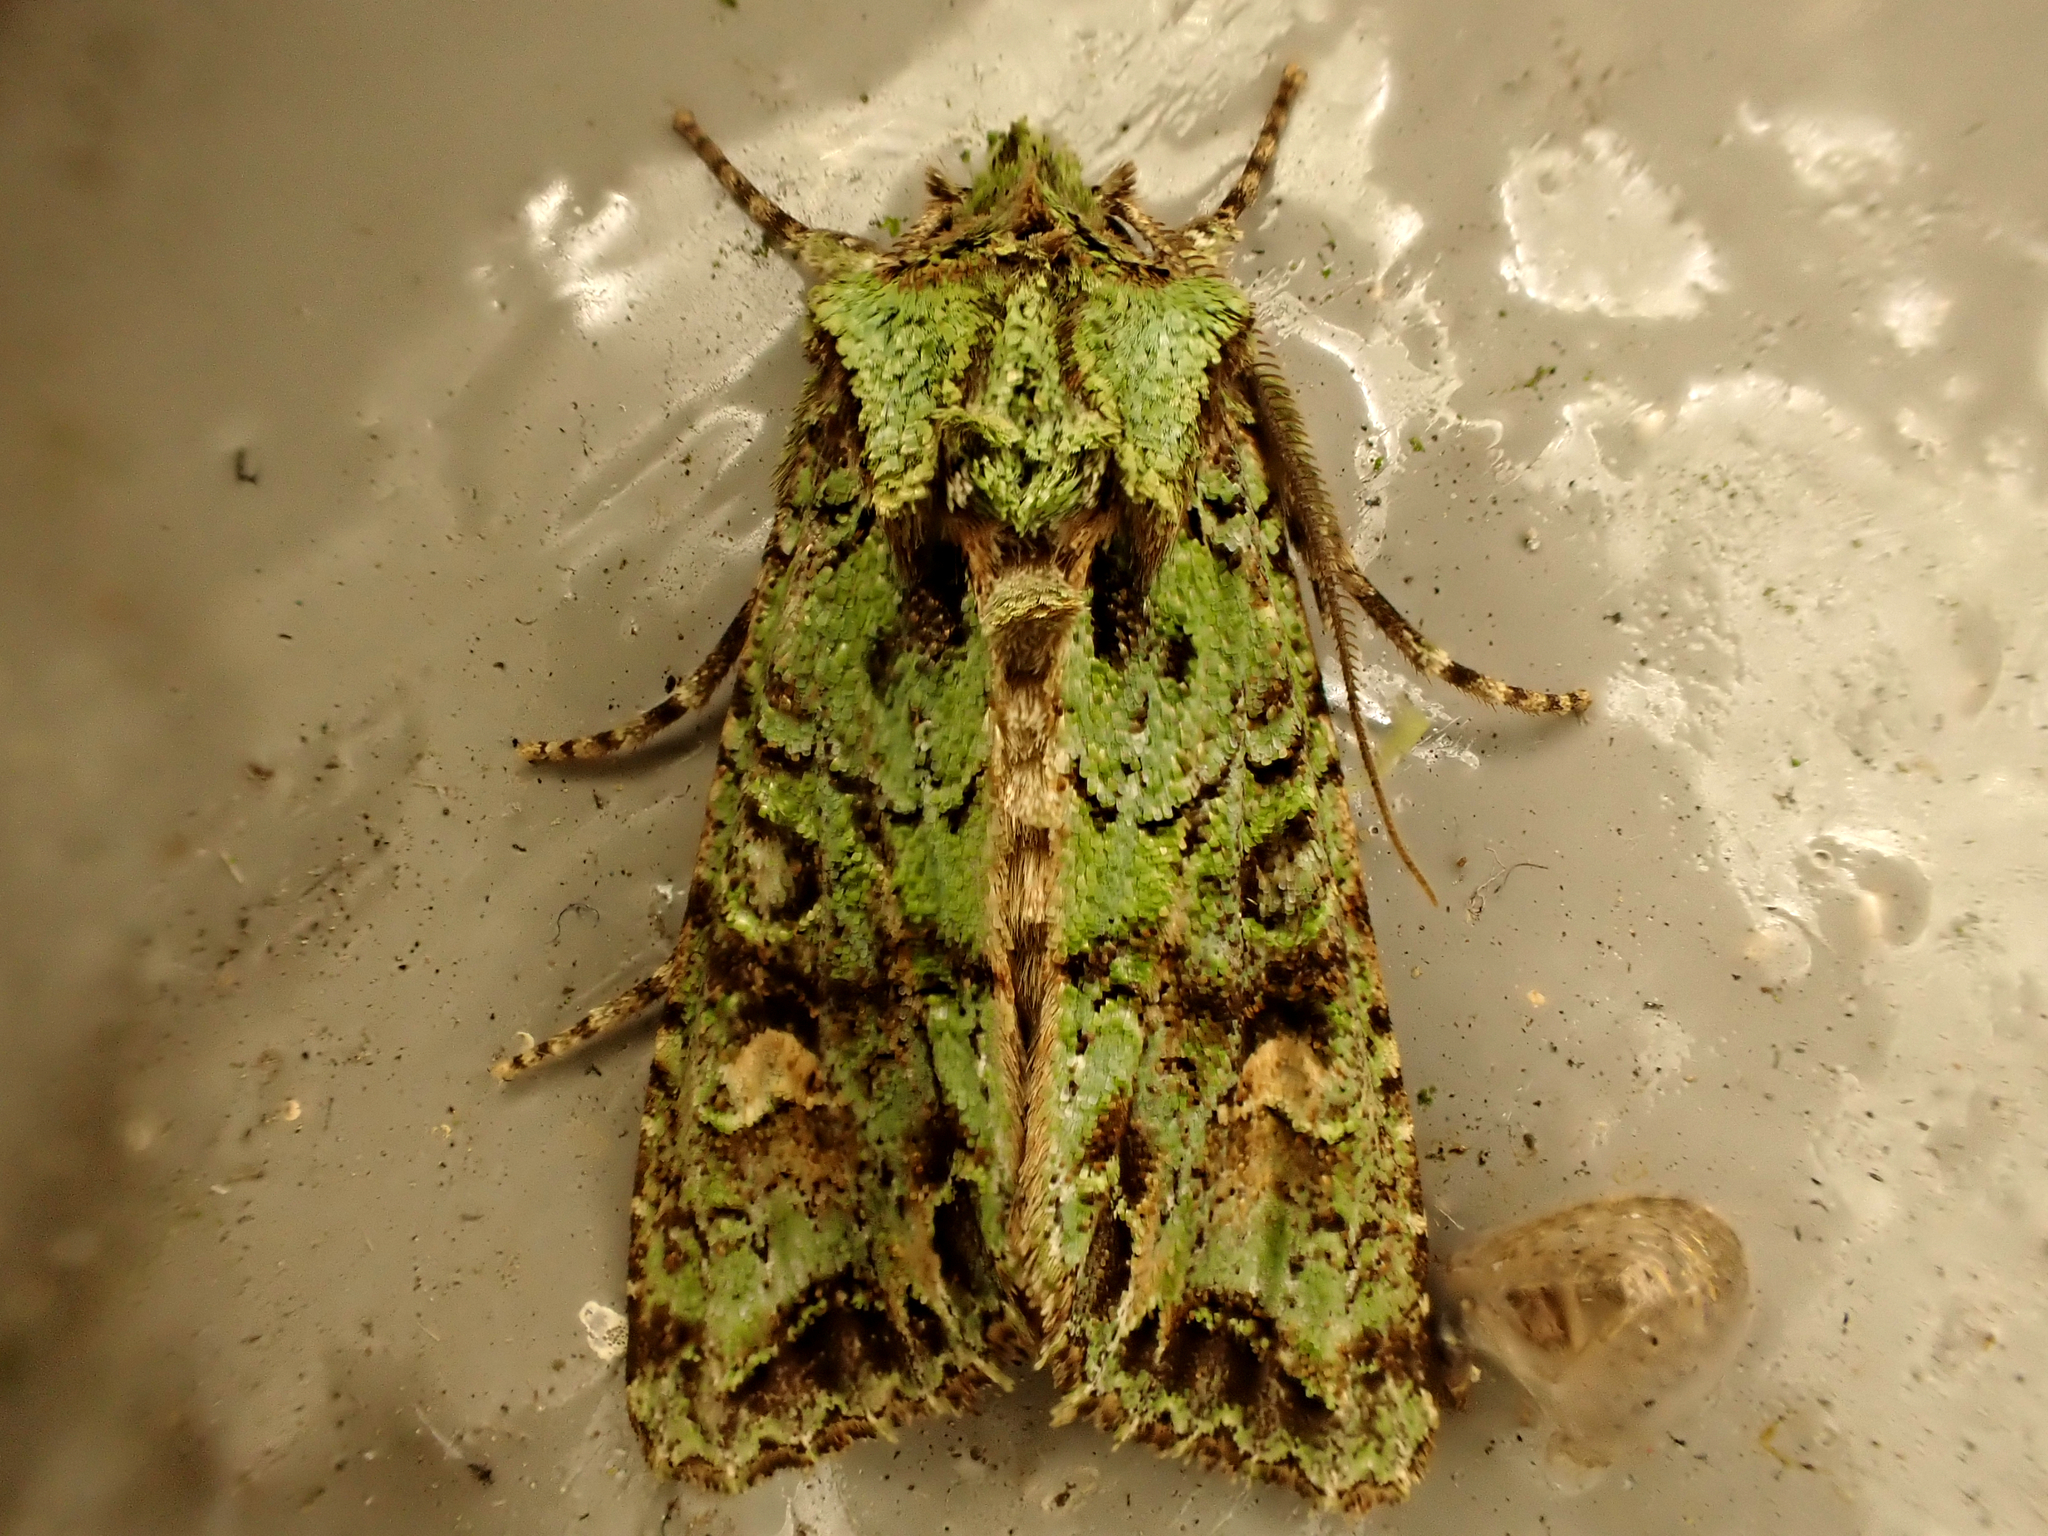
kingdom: Animalia
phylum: Arthropoda
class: Insecta
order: Lepidoptera
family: Noctuidae
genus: Ichneutica
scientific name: Ichneutica
